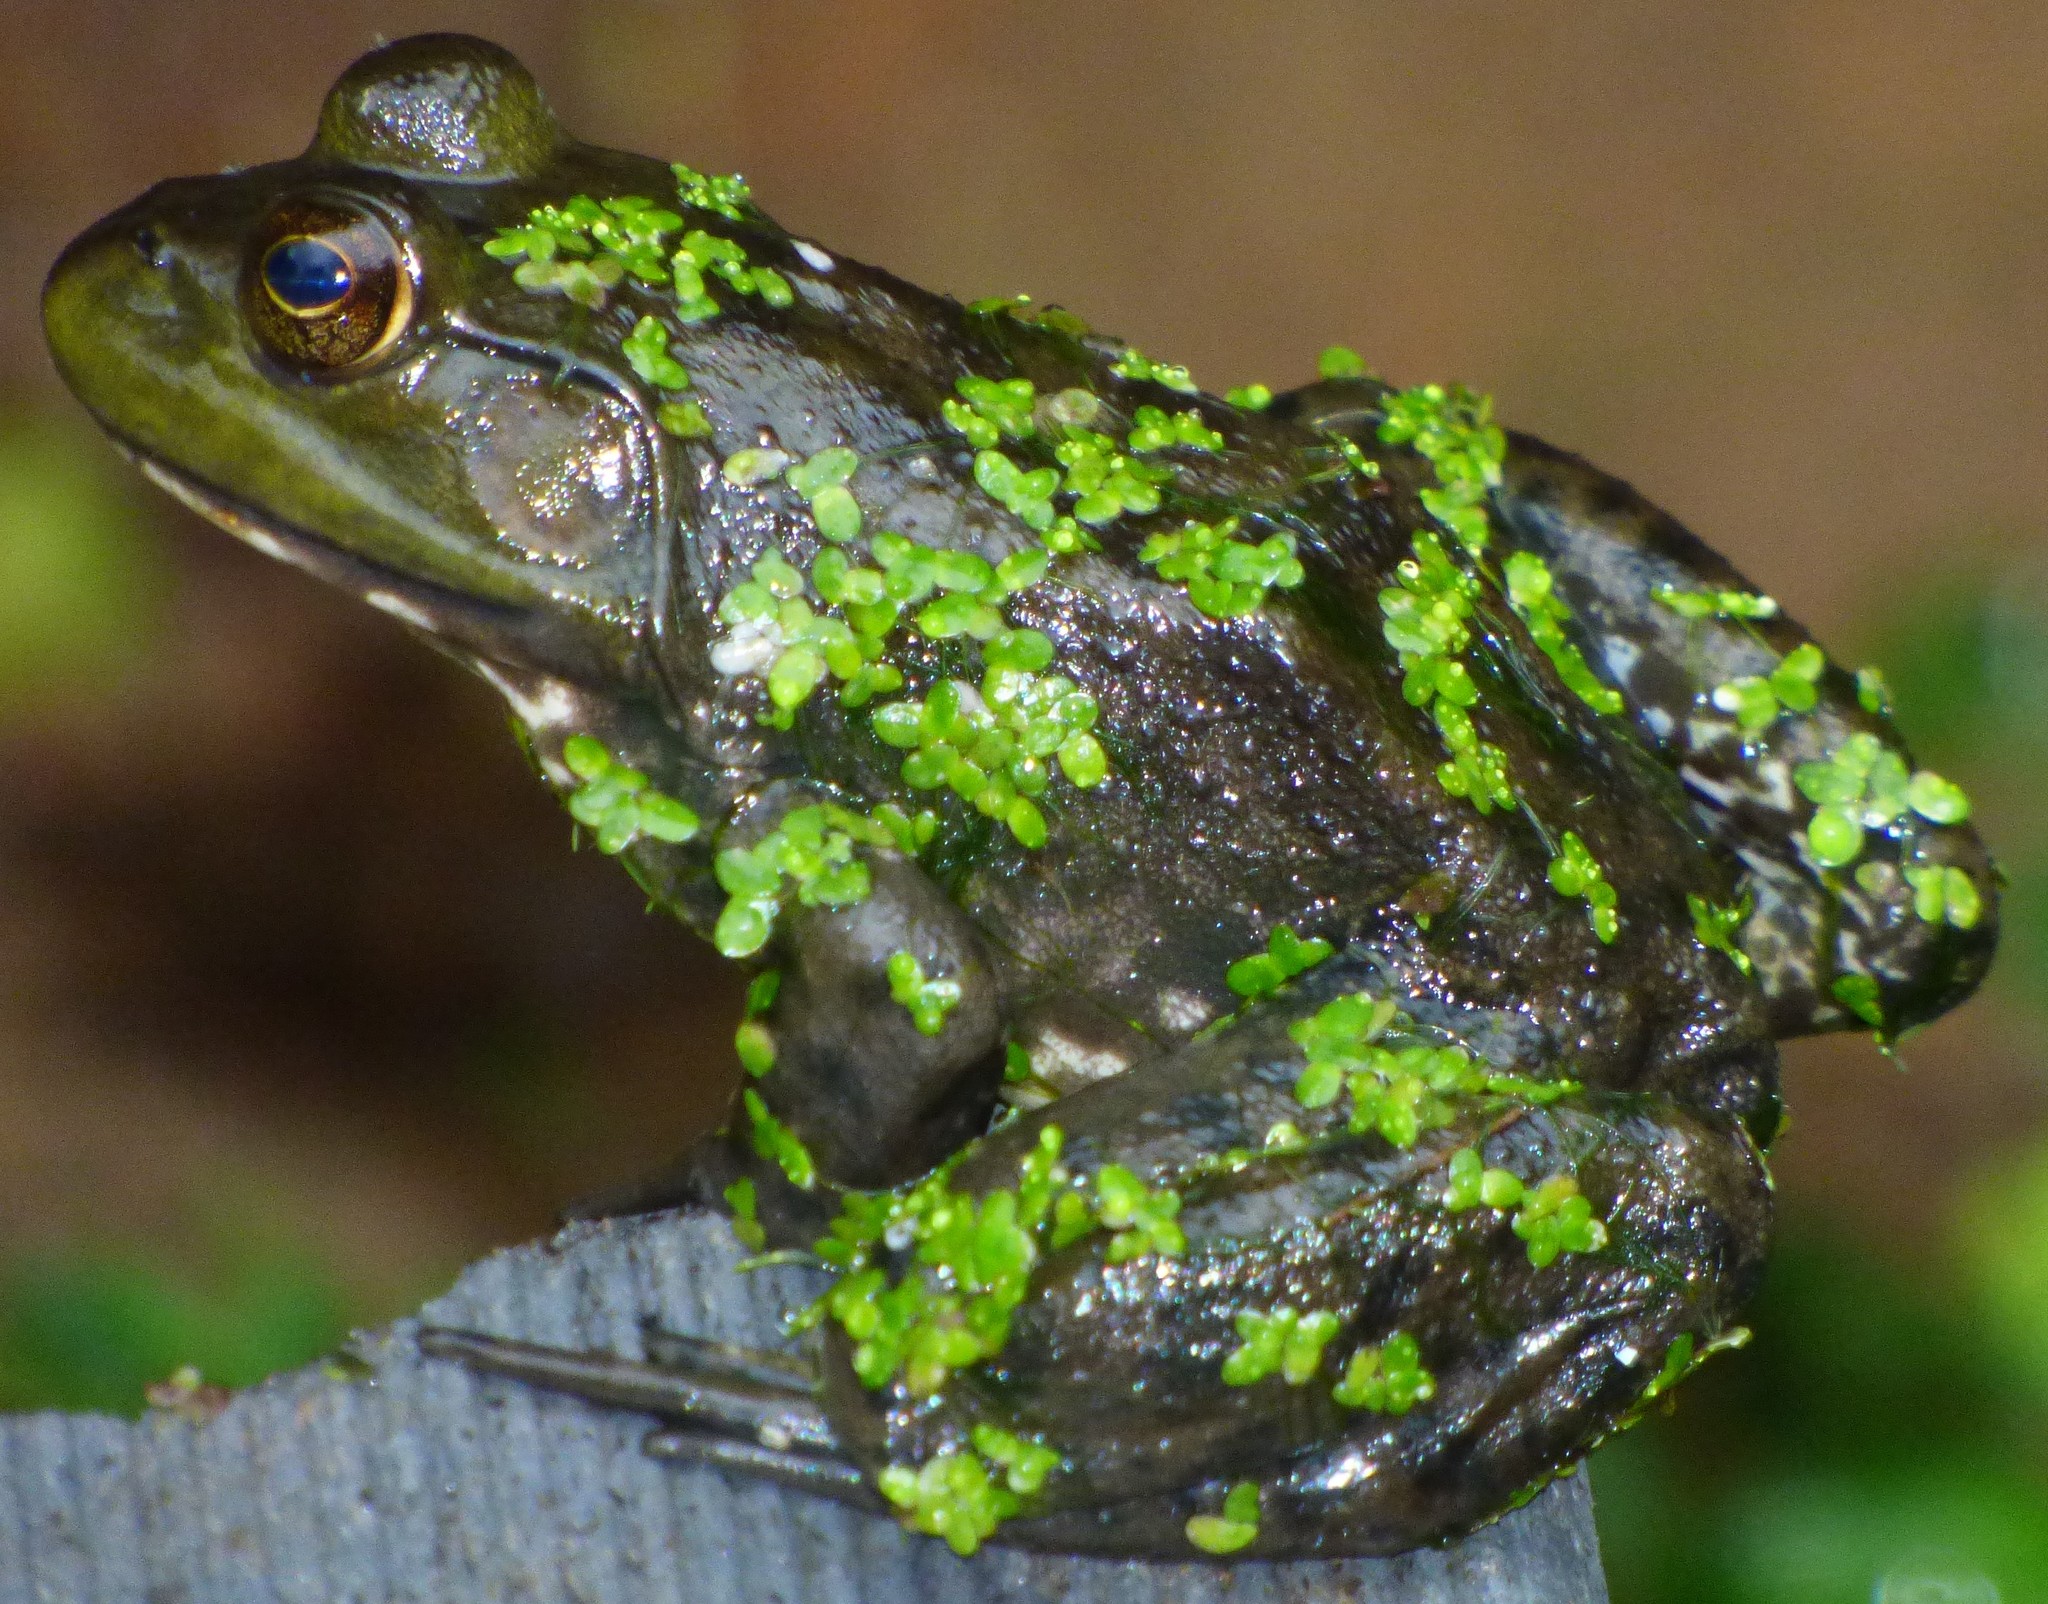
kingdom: Animalia
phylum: Chordata
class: Amphibia
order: Anura
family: Ranidae
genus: Lithobates
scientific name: Lithobates catesbeianus
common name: American bullfrog
